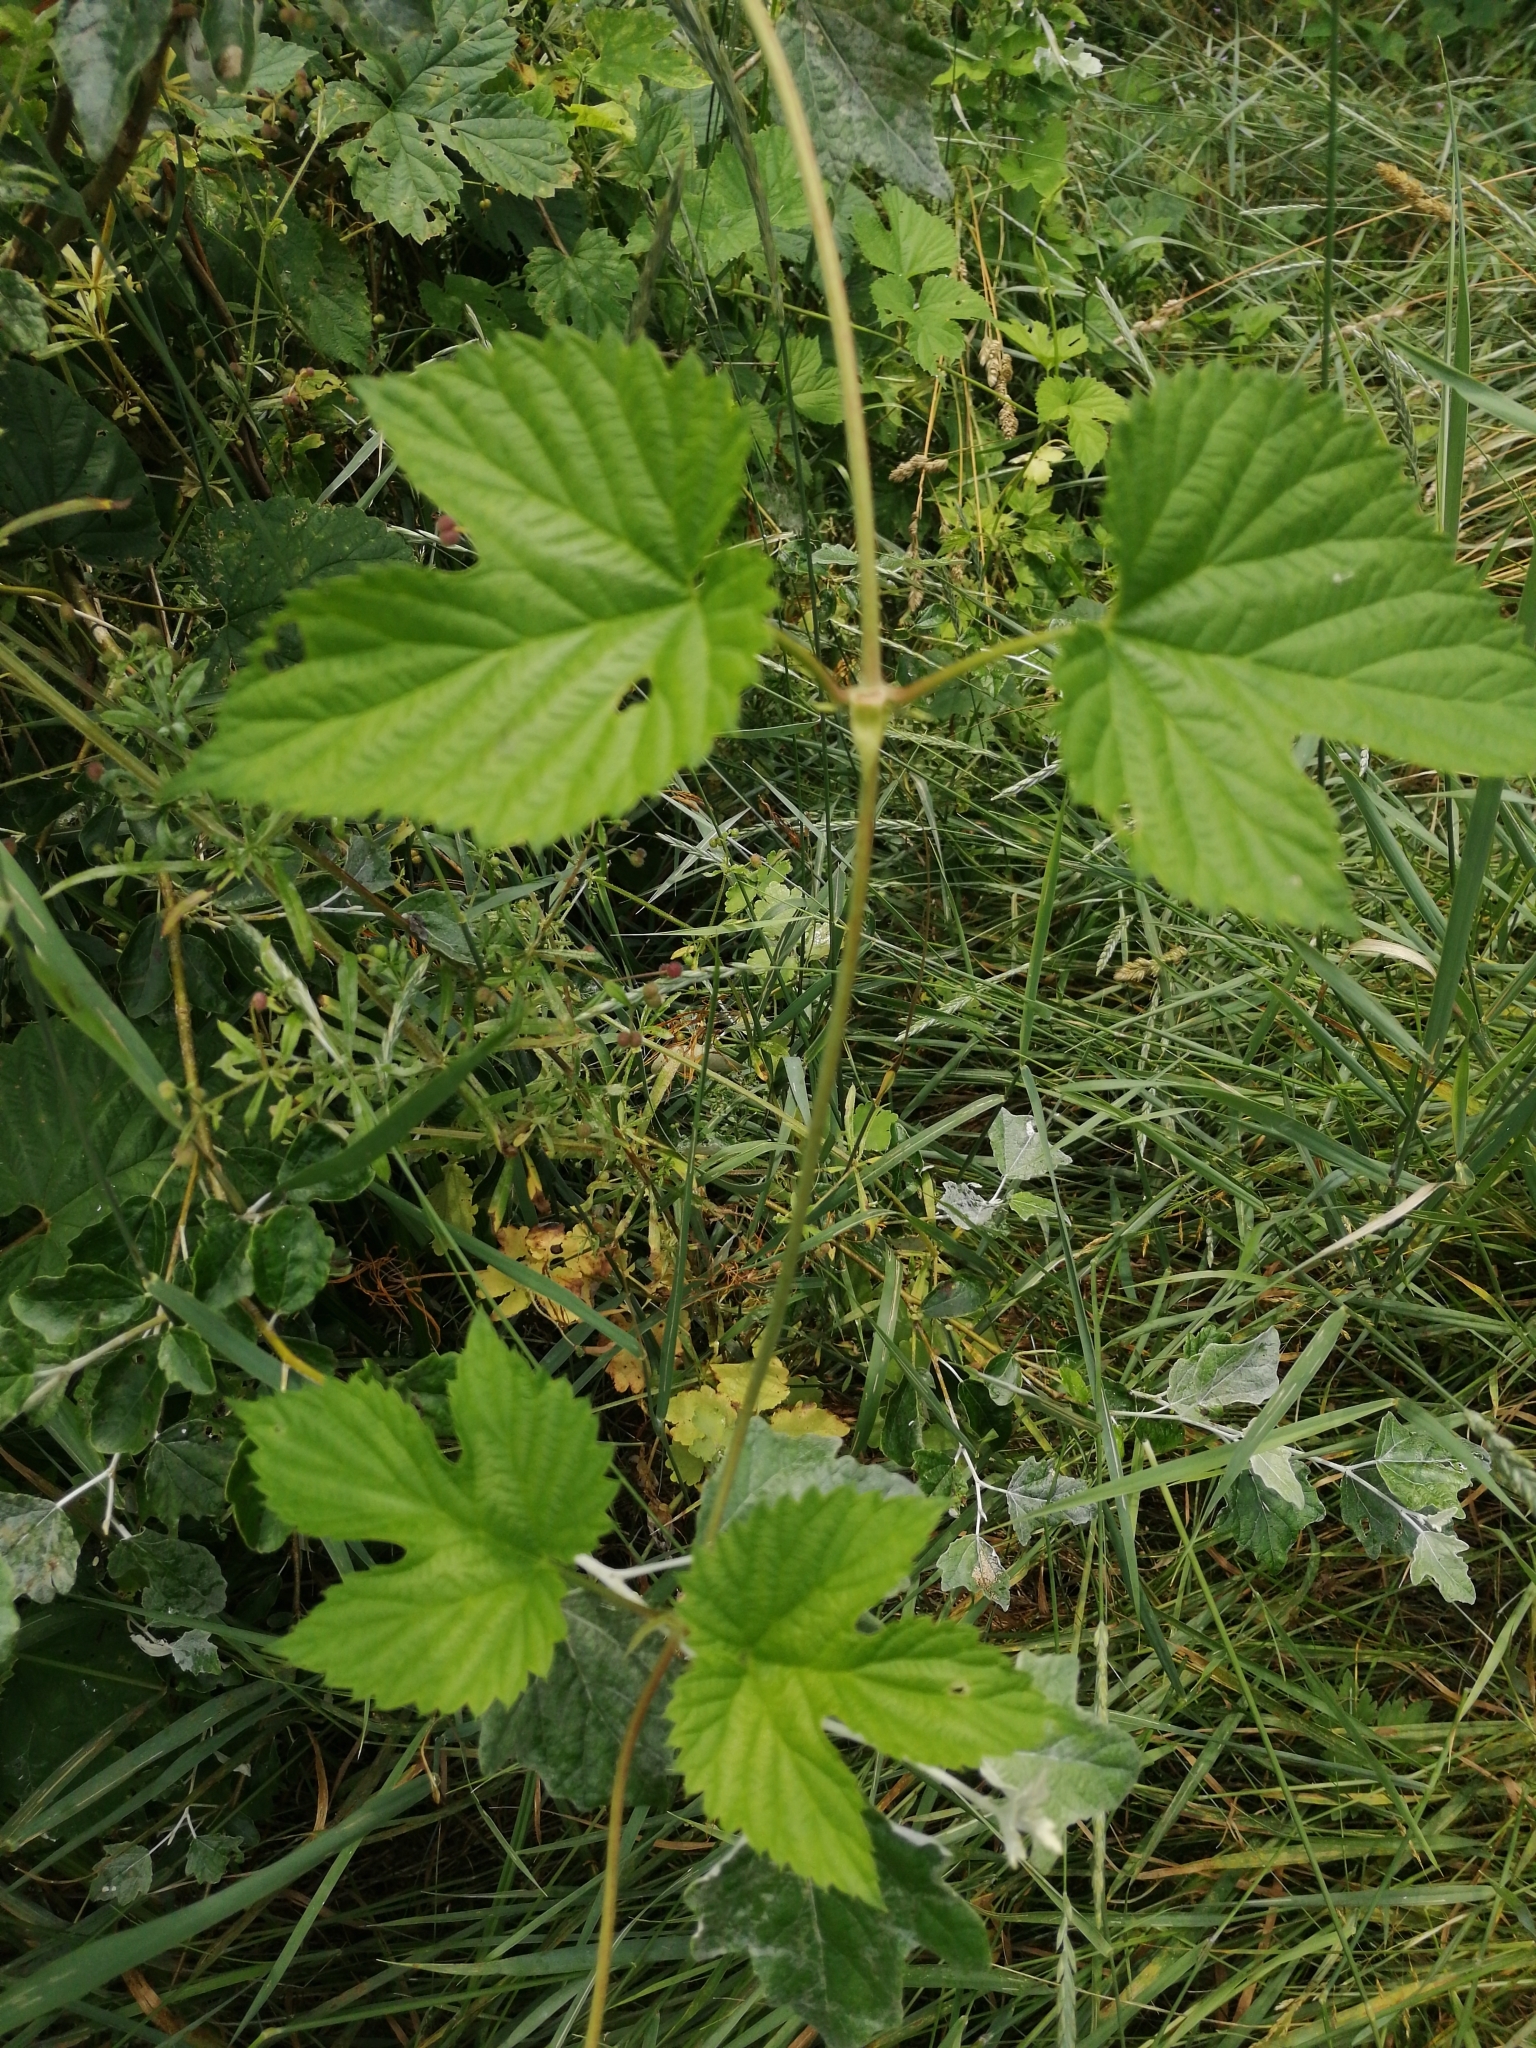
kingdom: Plantae
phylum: Tracheophyta
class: Magnoliopsida
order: Rosales
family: Cannabaceae
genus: Humulus
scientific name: Humulus lupulus
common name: Hop
